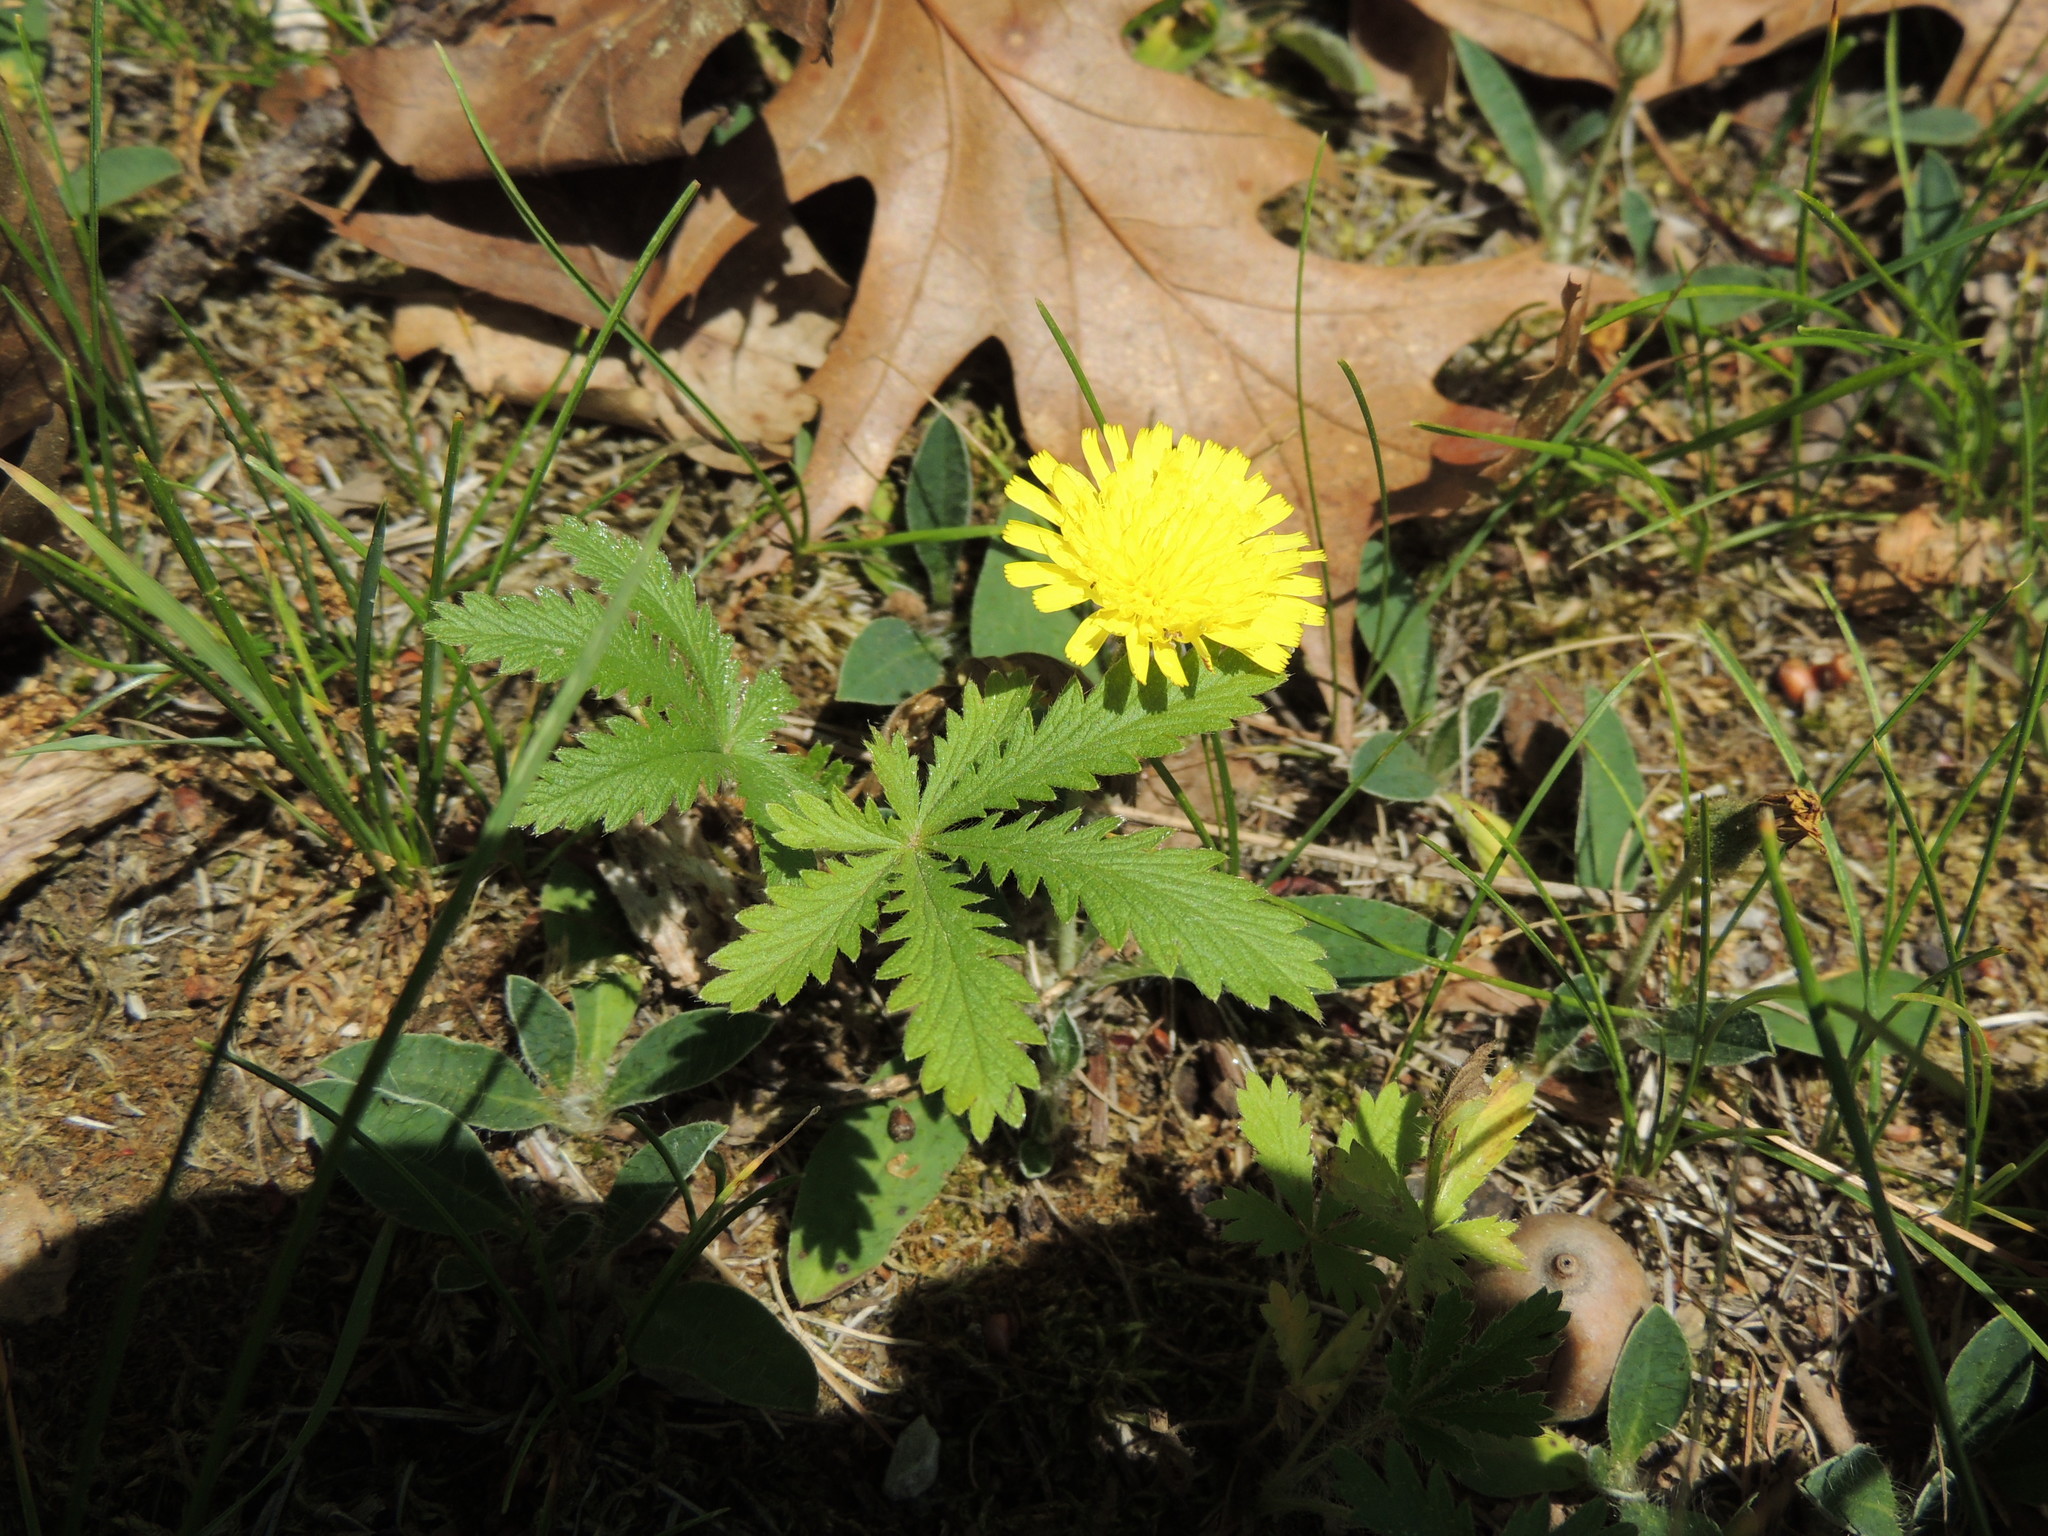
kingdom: Plantae
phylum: Tracheophyta
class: Magnoliopsida
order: Rosales
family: Rosaceae
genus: Potentilla
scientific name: Potentilla recta
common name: Sulphur cinquefoil
